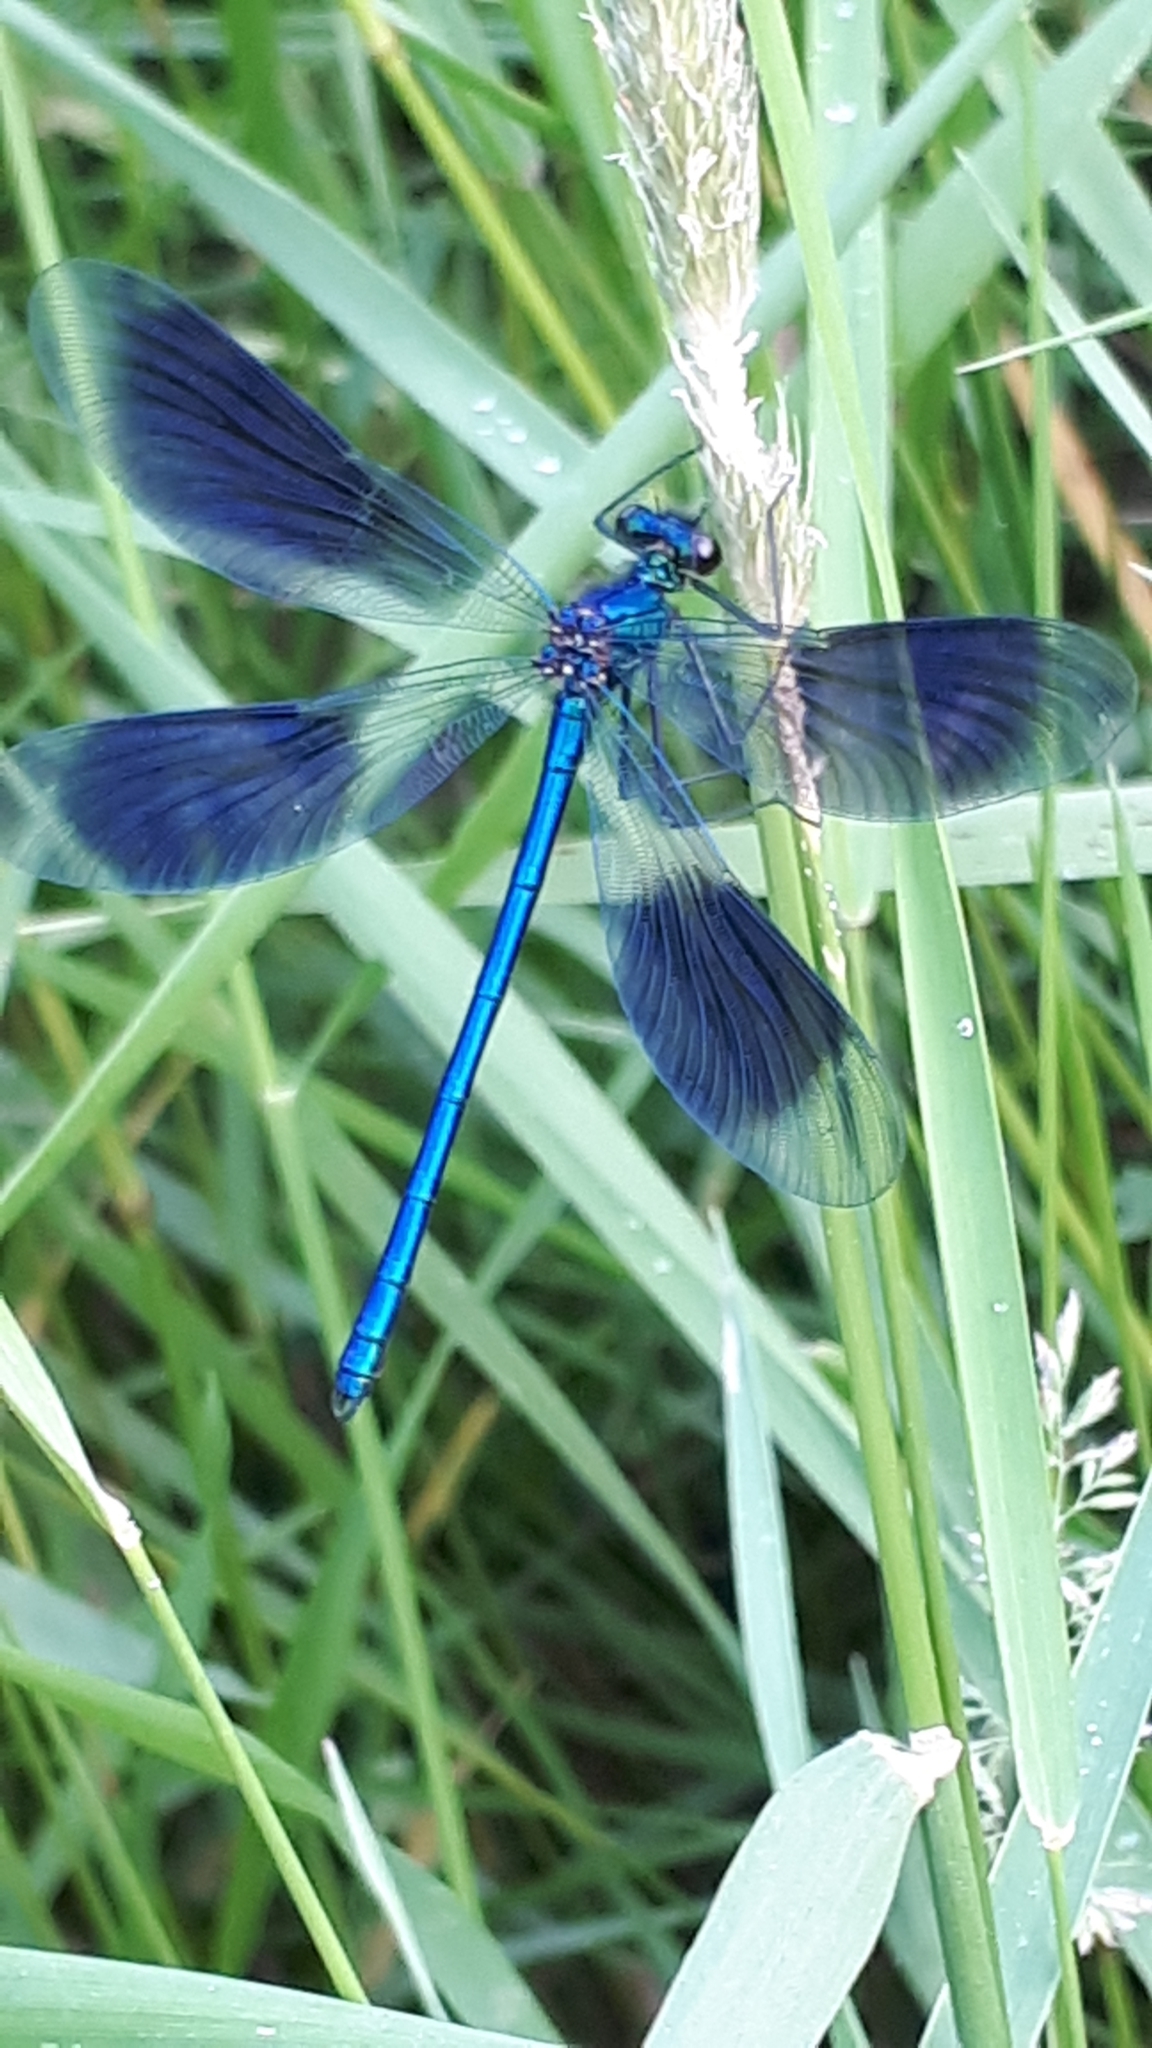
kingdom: Animalia
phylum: Arthropoda
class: Insecta
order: Odonata
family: Calopterygidae
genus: Calopteryx
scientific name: Calopteryx splendens
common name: Banded demoiselle
